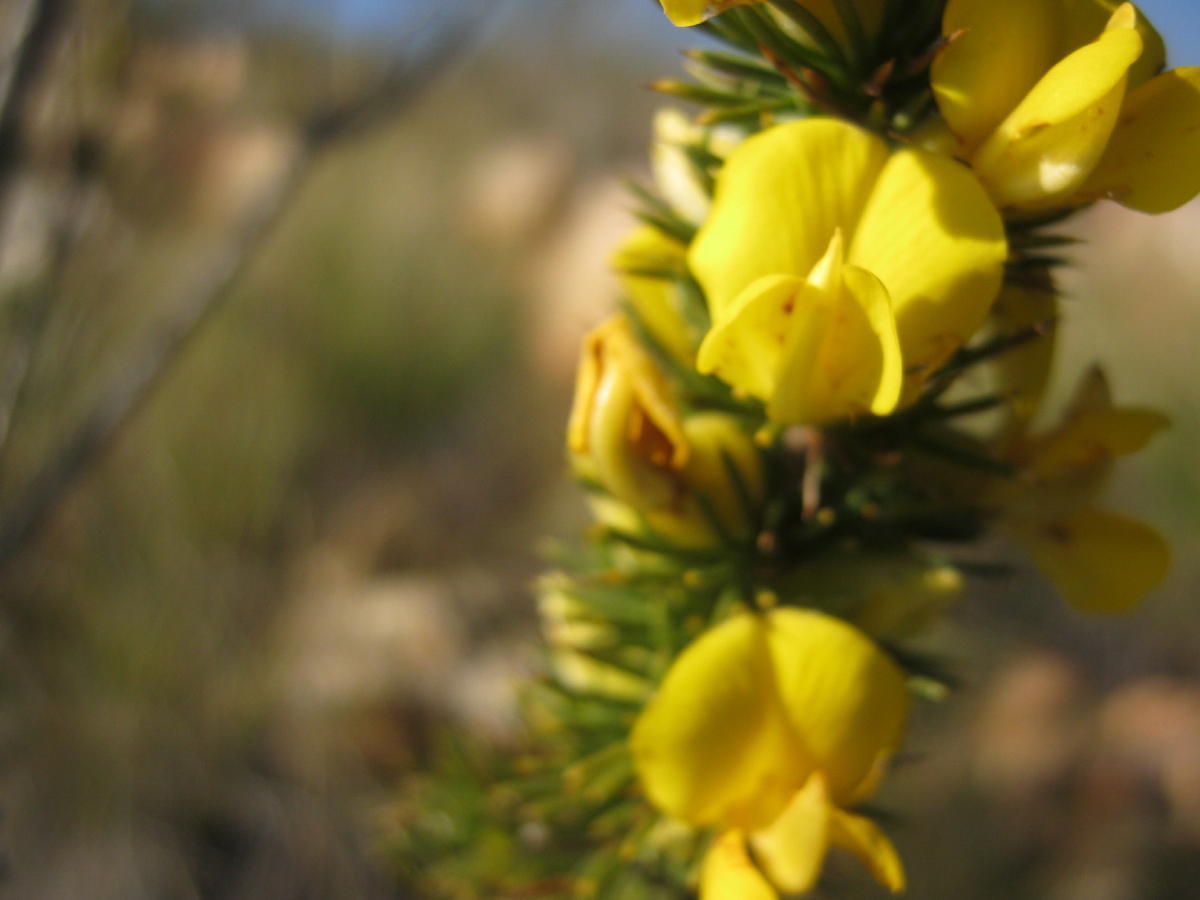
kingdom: Plantae
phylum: Tracheophyta
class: Magnoliopsida
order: Fabales
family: Fabaceae
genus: Aspalathus
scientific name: Aspalathus sceptrumaureum
